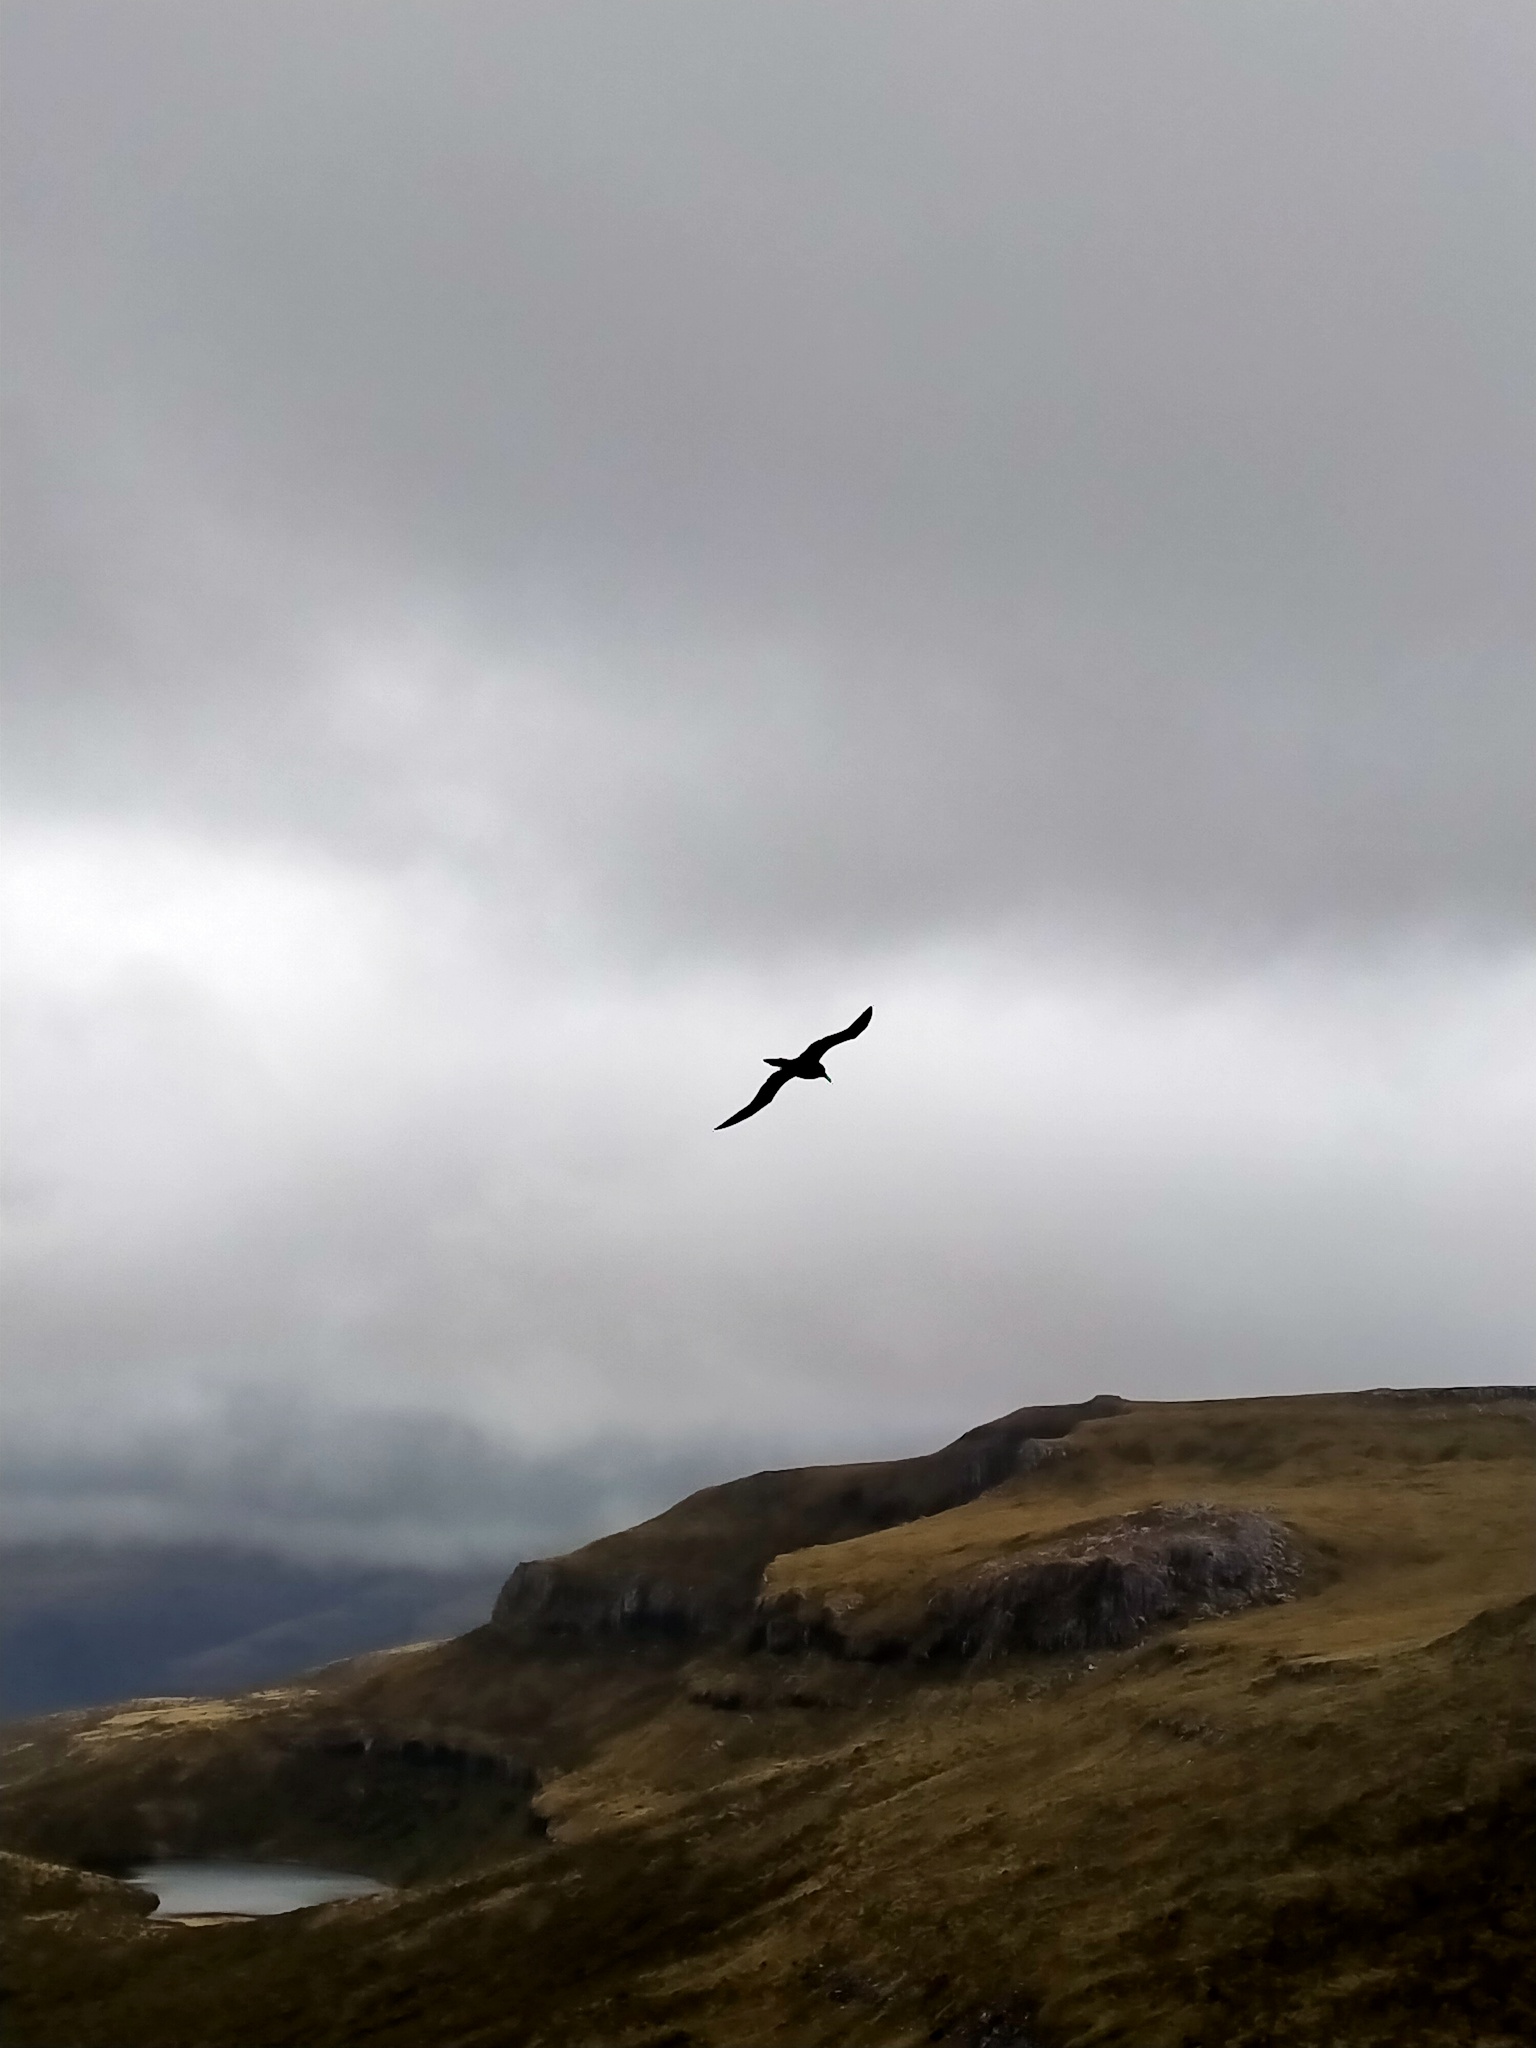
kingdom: Animalia
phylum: Chordata
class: Aves
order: Procellariiformes
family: Diomedeidae
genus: Phoebetria
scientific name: Phoebetria palpebrata
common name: Light-mantled albatross
